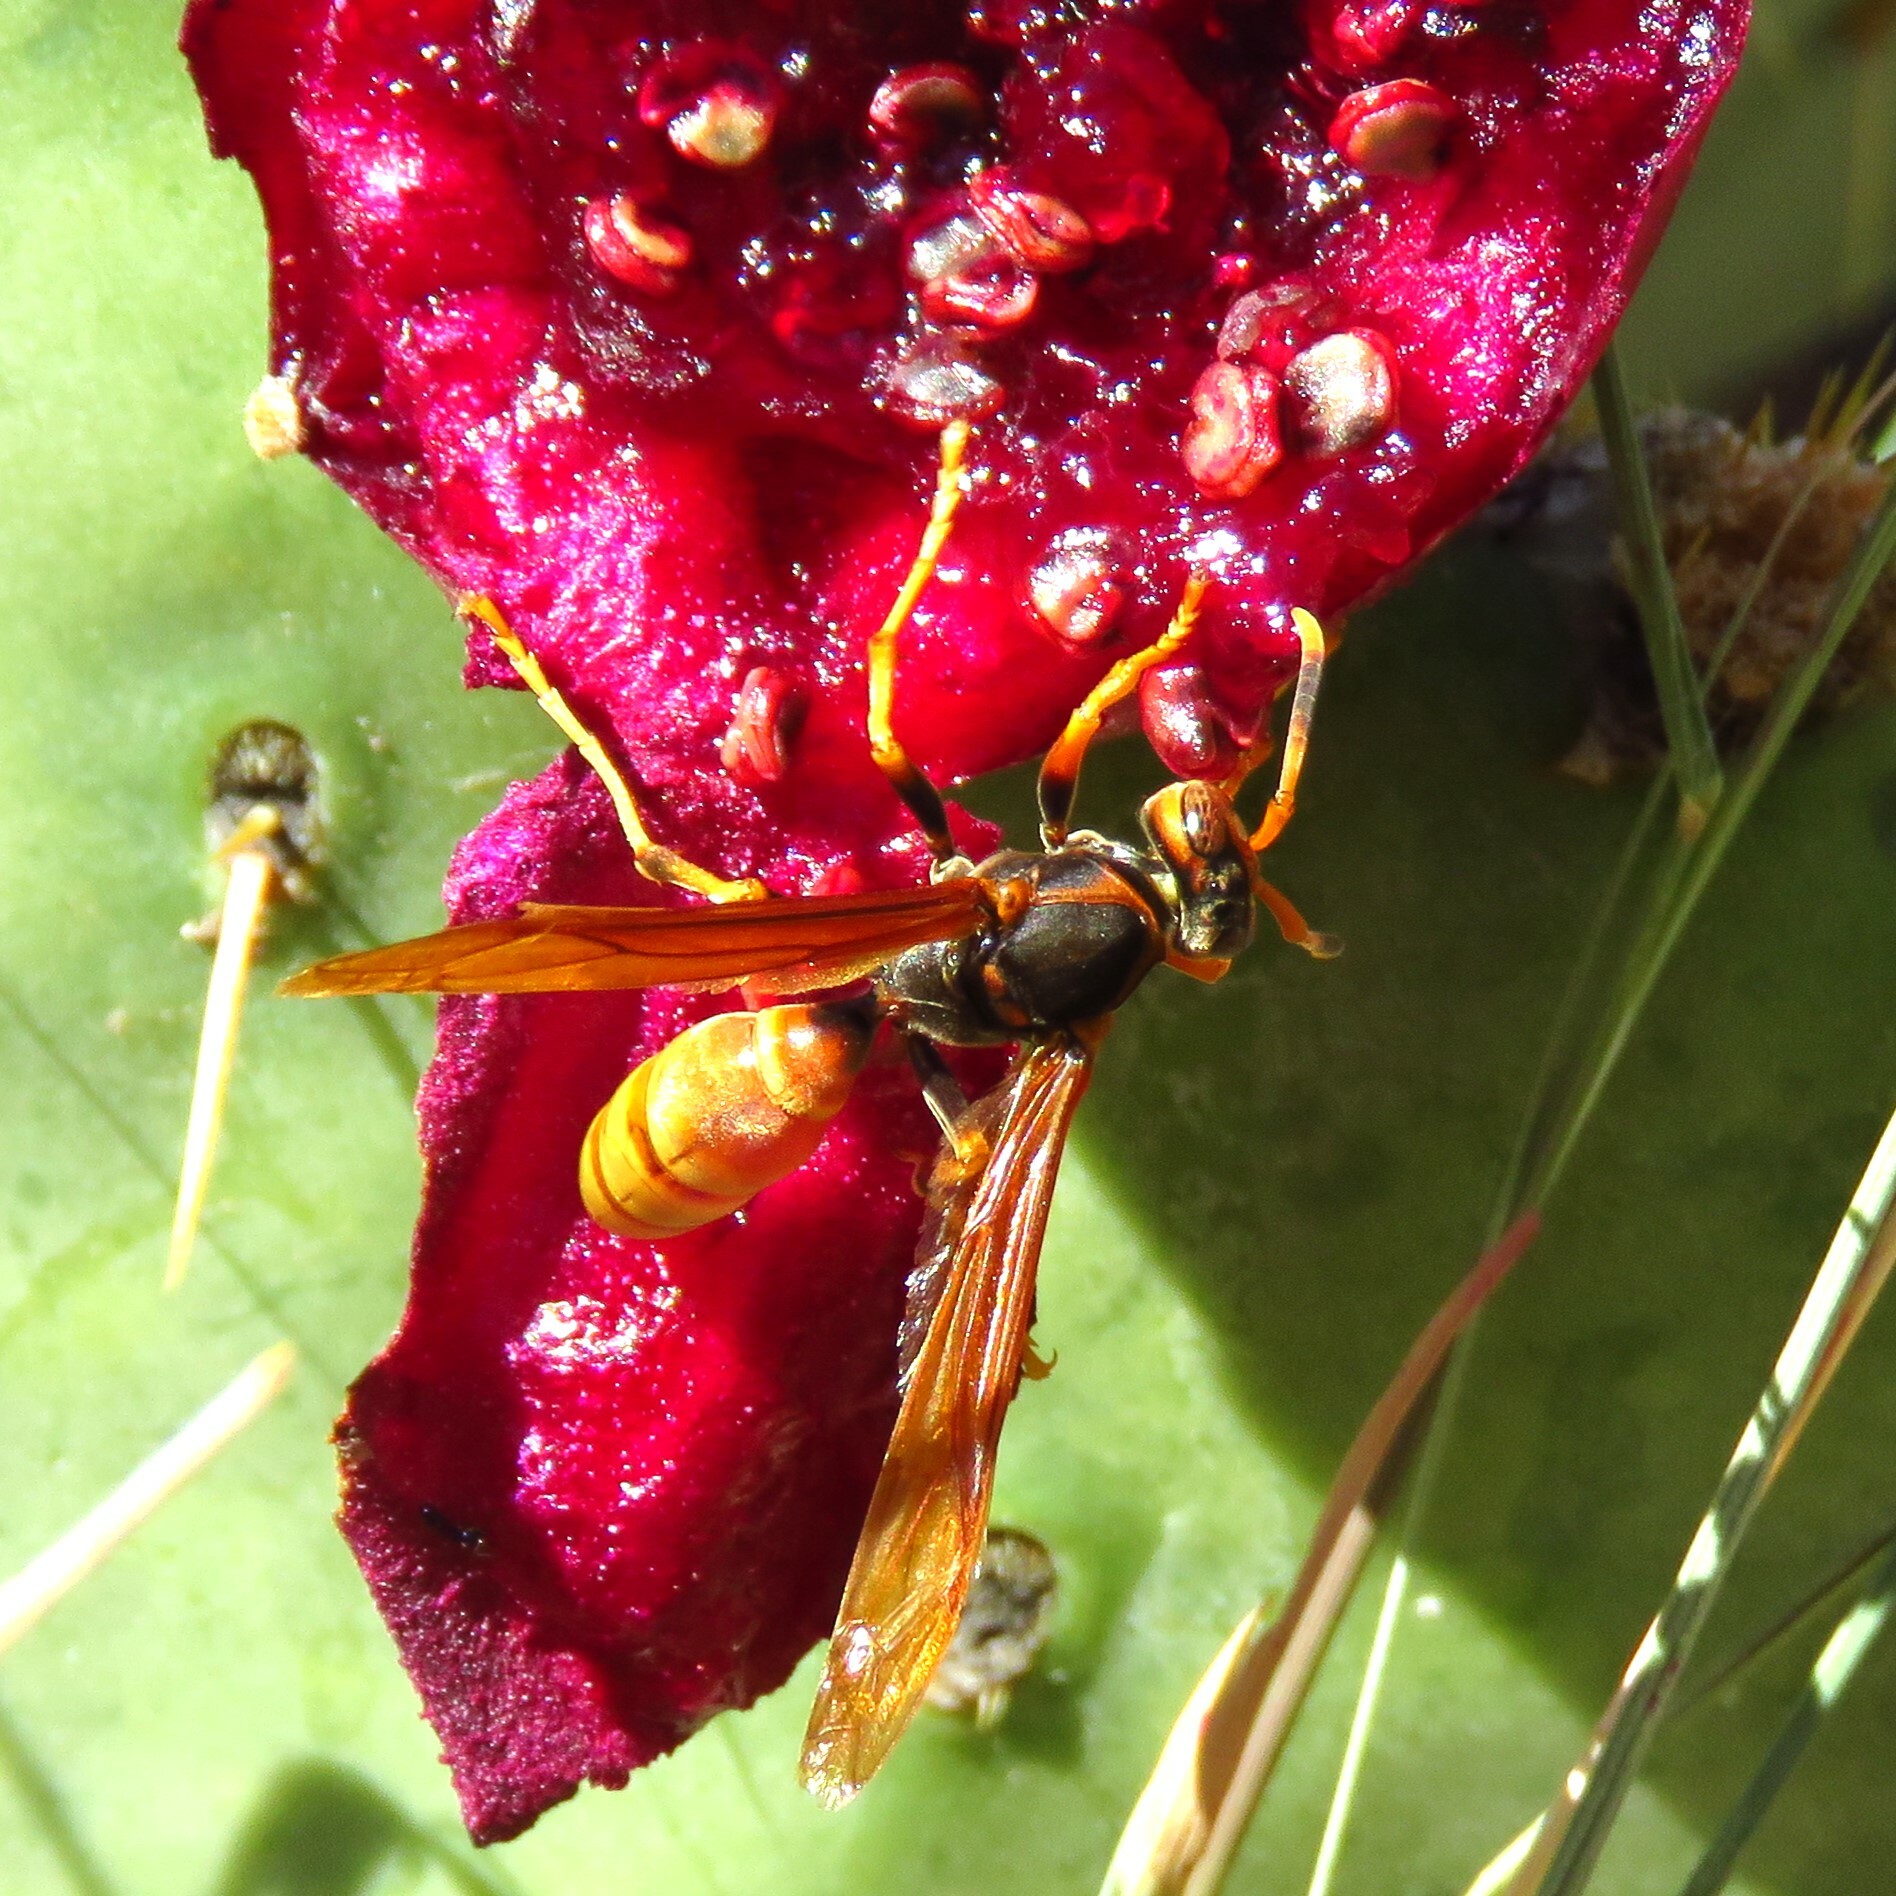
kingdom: Animalia
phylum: Arthropoda
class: Insecta
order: Hymenoptera
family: Eumenidae
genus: Polistes
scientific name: Polistes comanchus
